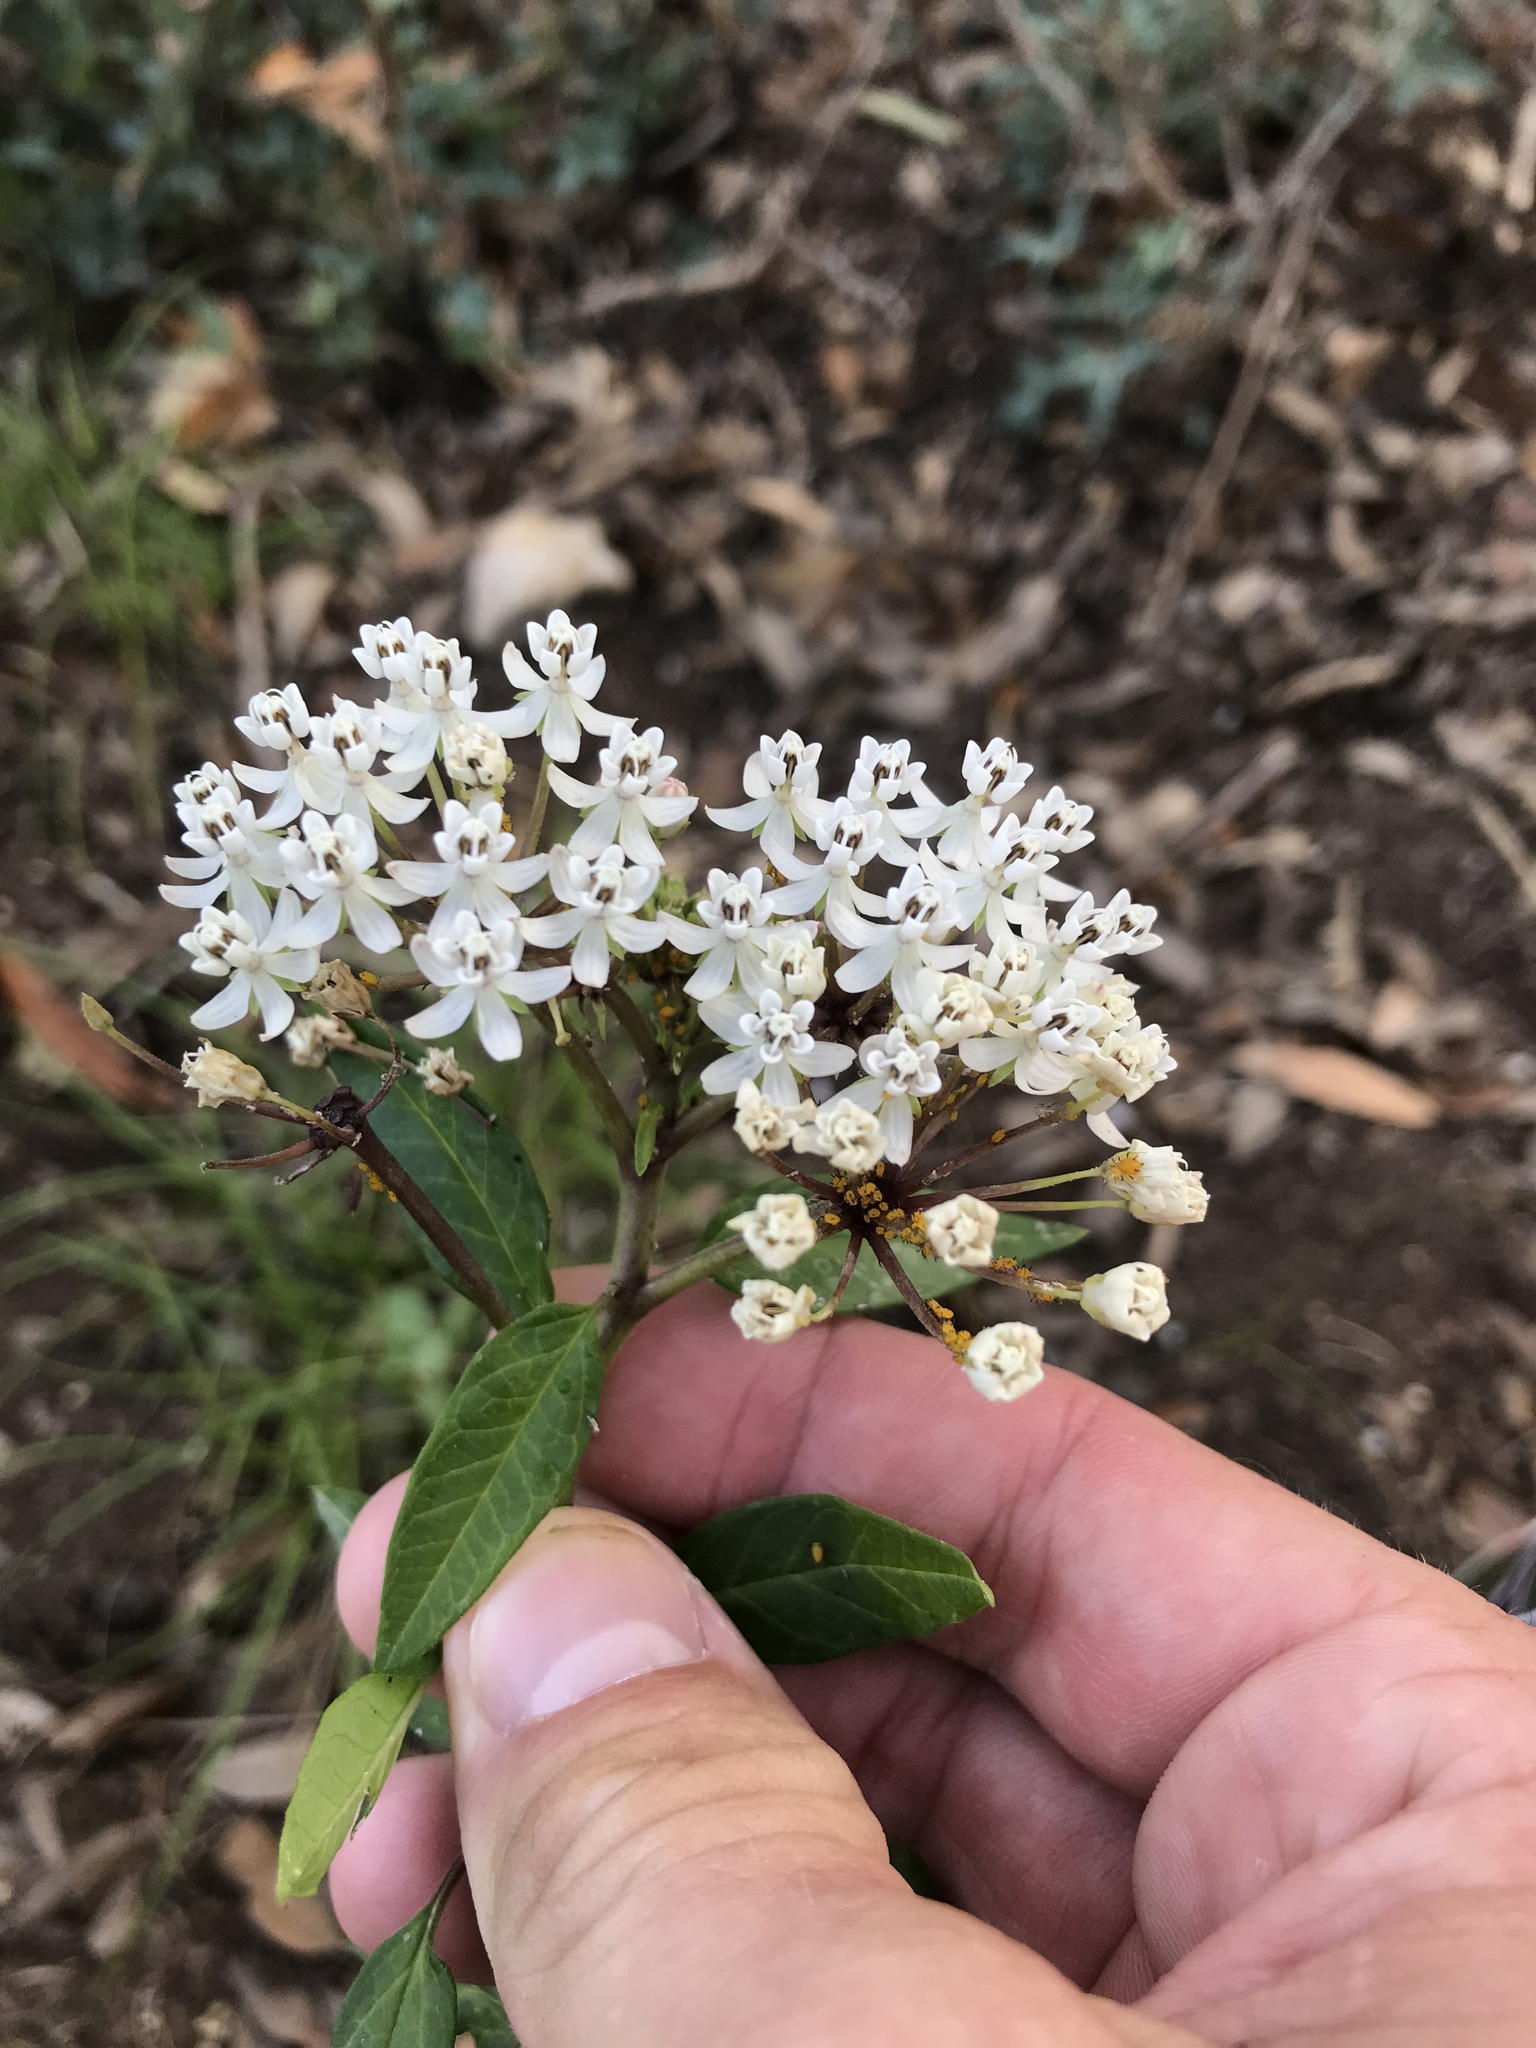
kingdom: Plantae
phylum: Tracheophyta
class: Magnoliopsida
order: Gentianales
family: Apocynaceae
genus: Asclepias
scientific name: Asclepias texana
